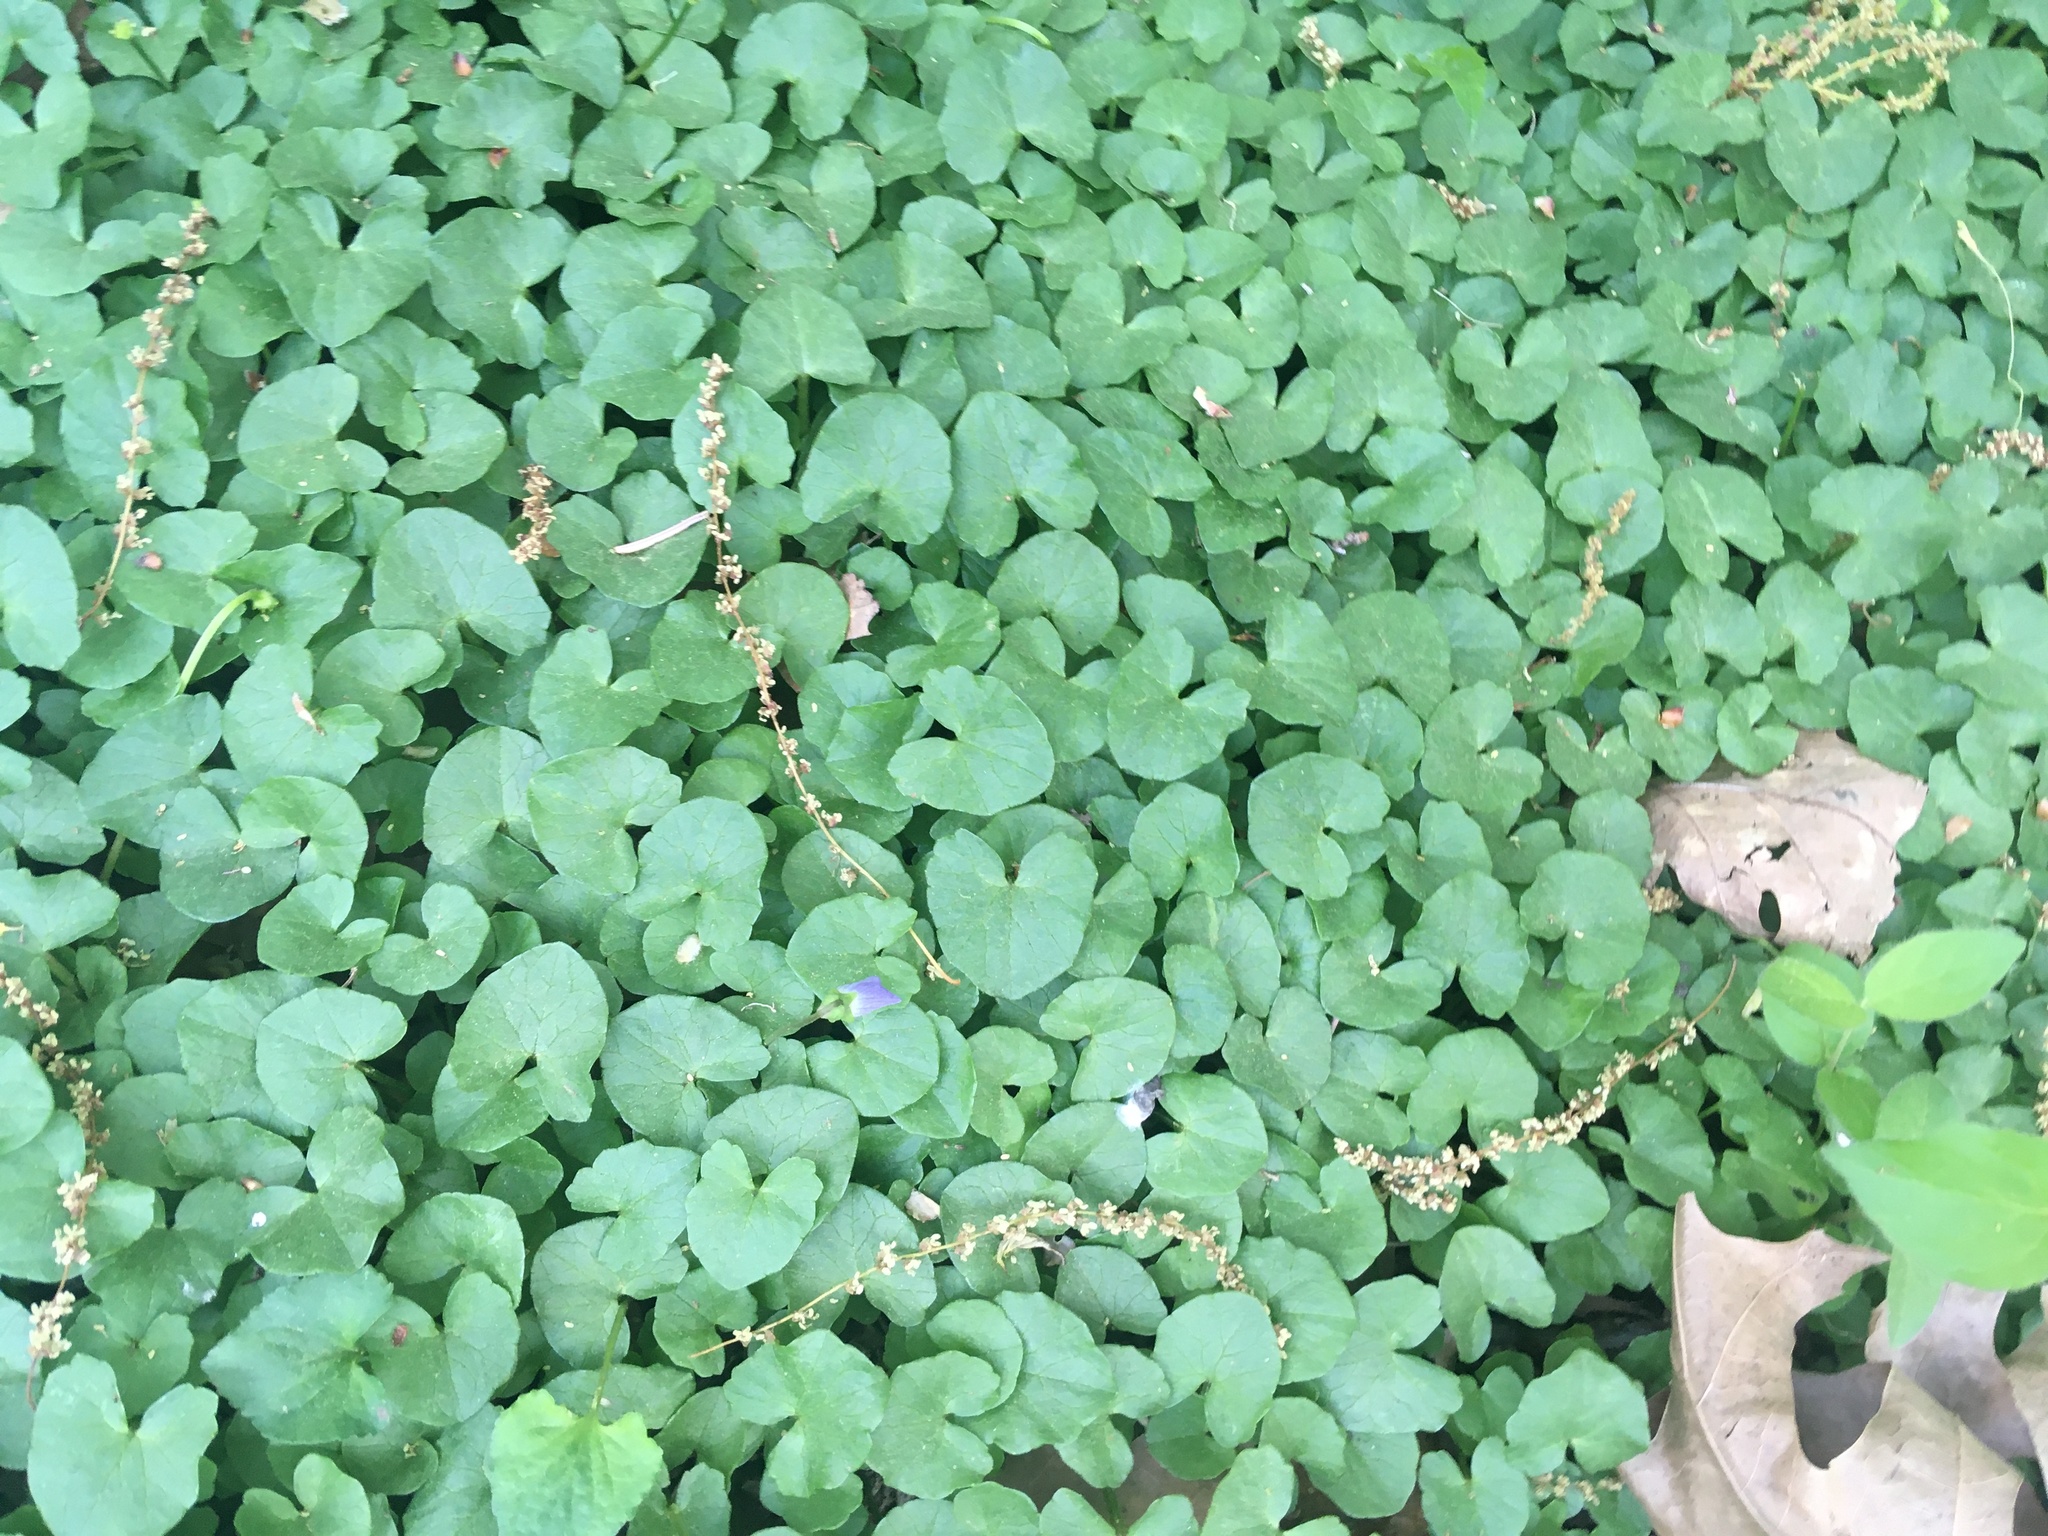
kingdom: Plantae
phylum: Tracheophyta
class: Magnoliopsida
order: Ranunculales
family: Ranunculaceae
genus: Ficaria
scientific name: Ficaria verna
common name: Lesser celandine
